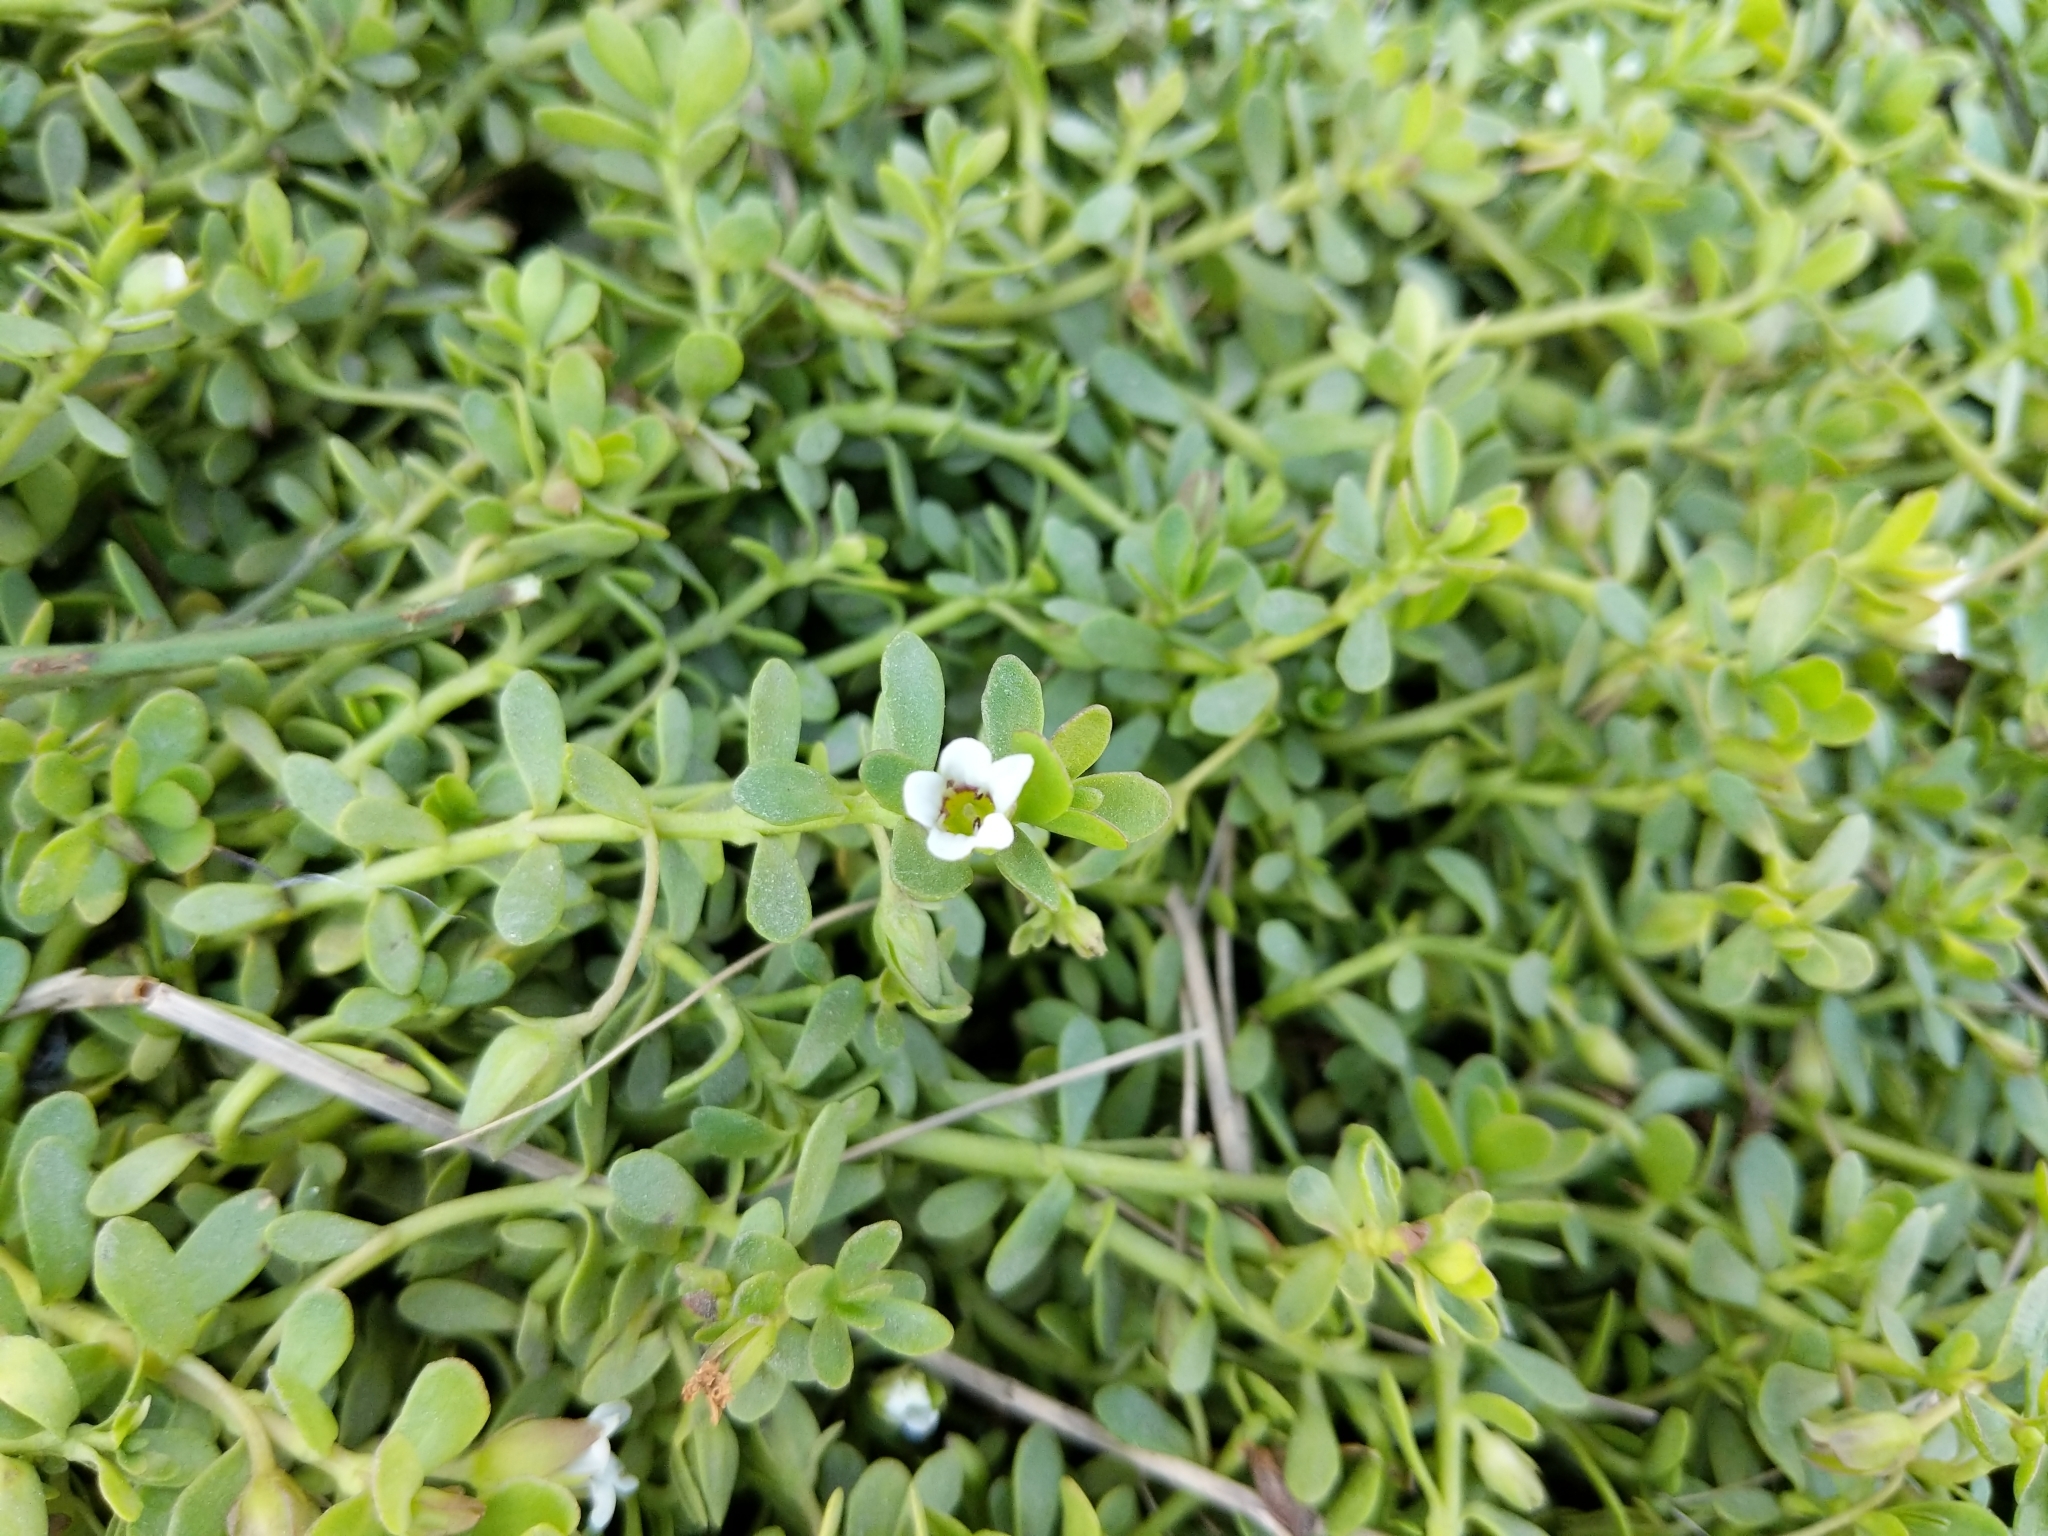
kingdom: Plantae
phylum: Tracheophyta
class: Magnoliopsida
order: Lamiales
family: Plantaginaceae
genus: Bacopa
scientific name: Bacopa monnieri
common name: Indian-pennywort
